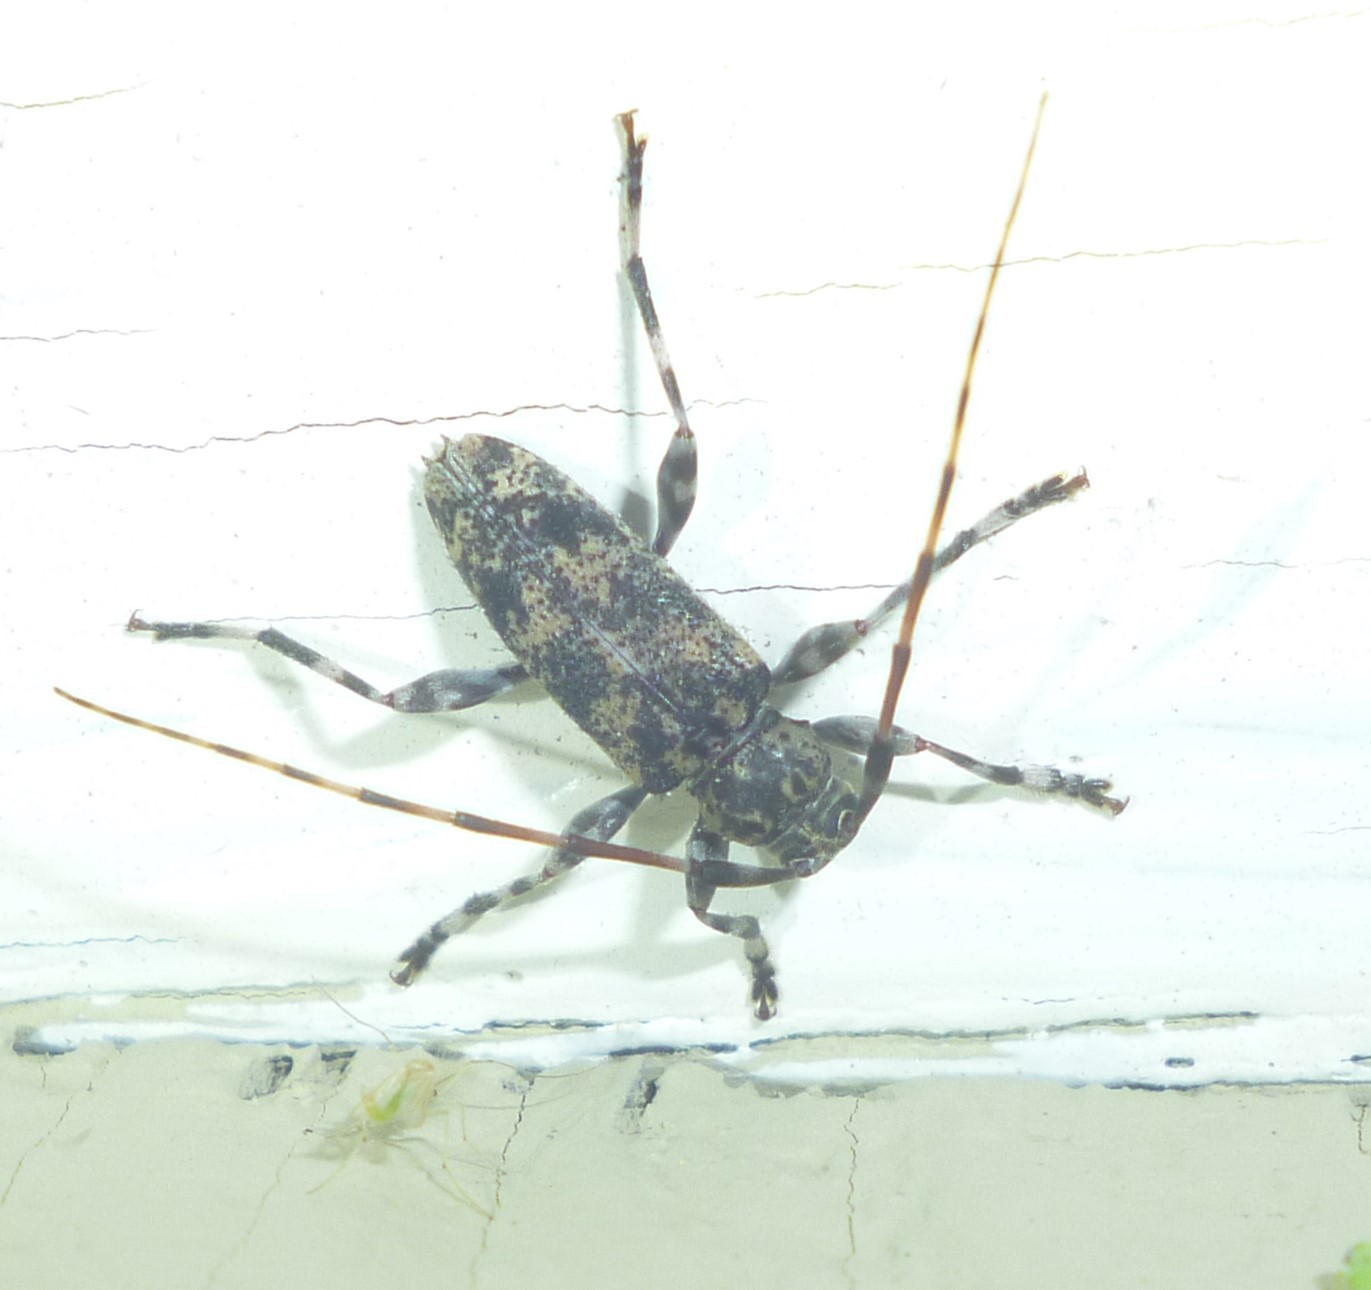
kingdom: Animalia
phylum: Arthropoda
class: Insecta
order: Coleoptera
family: Cerambycidae
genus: Graphisurus
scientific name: Graphisurus fasciatus
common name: Banded graphisurus
